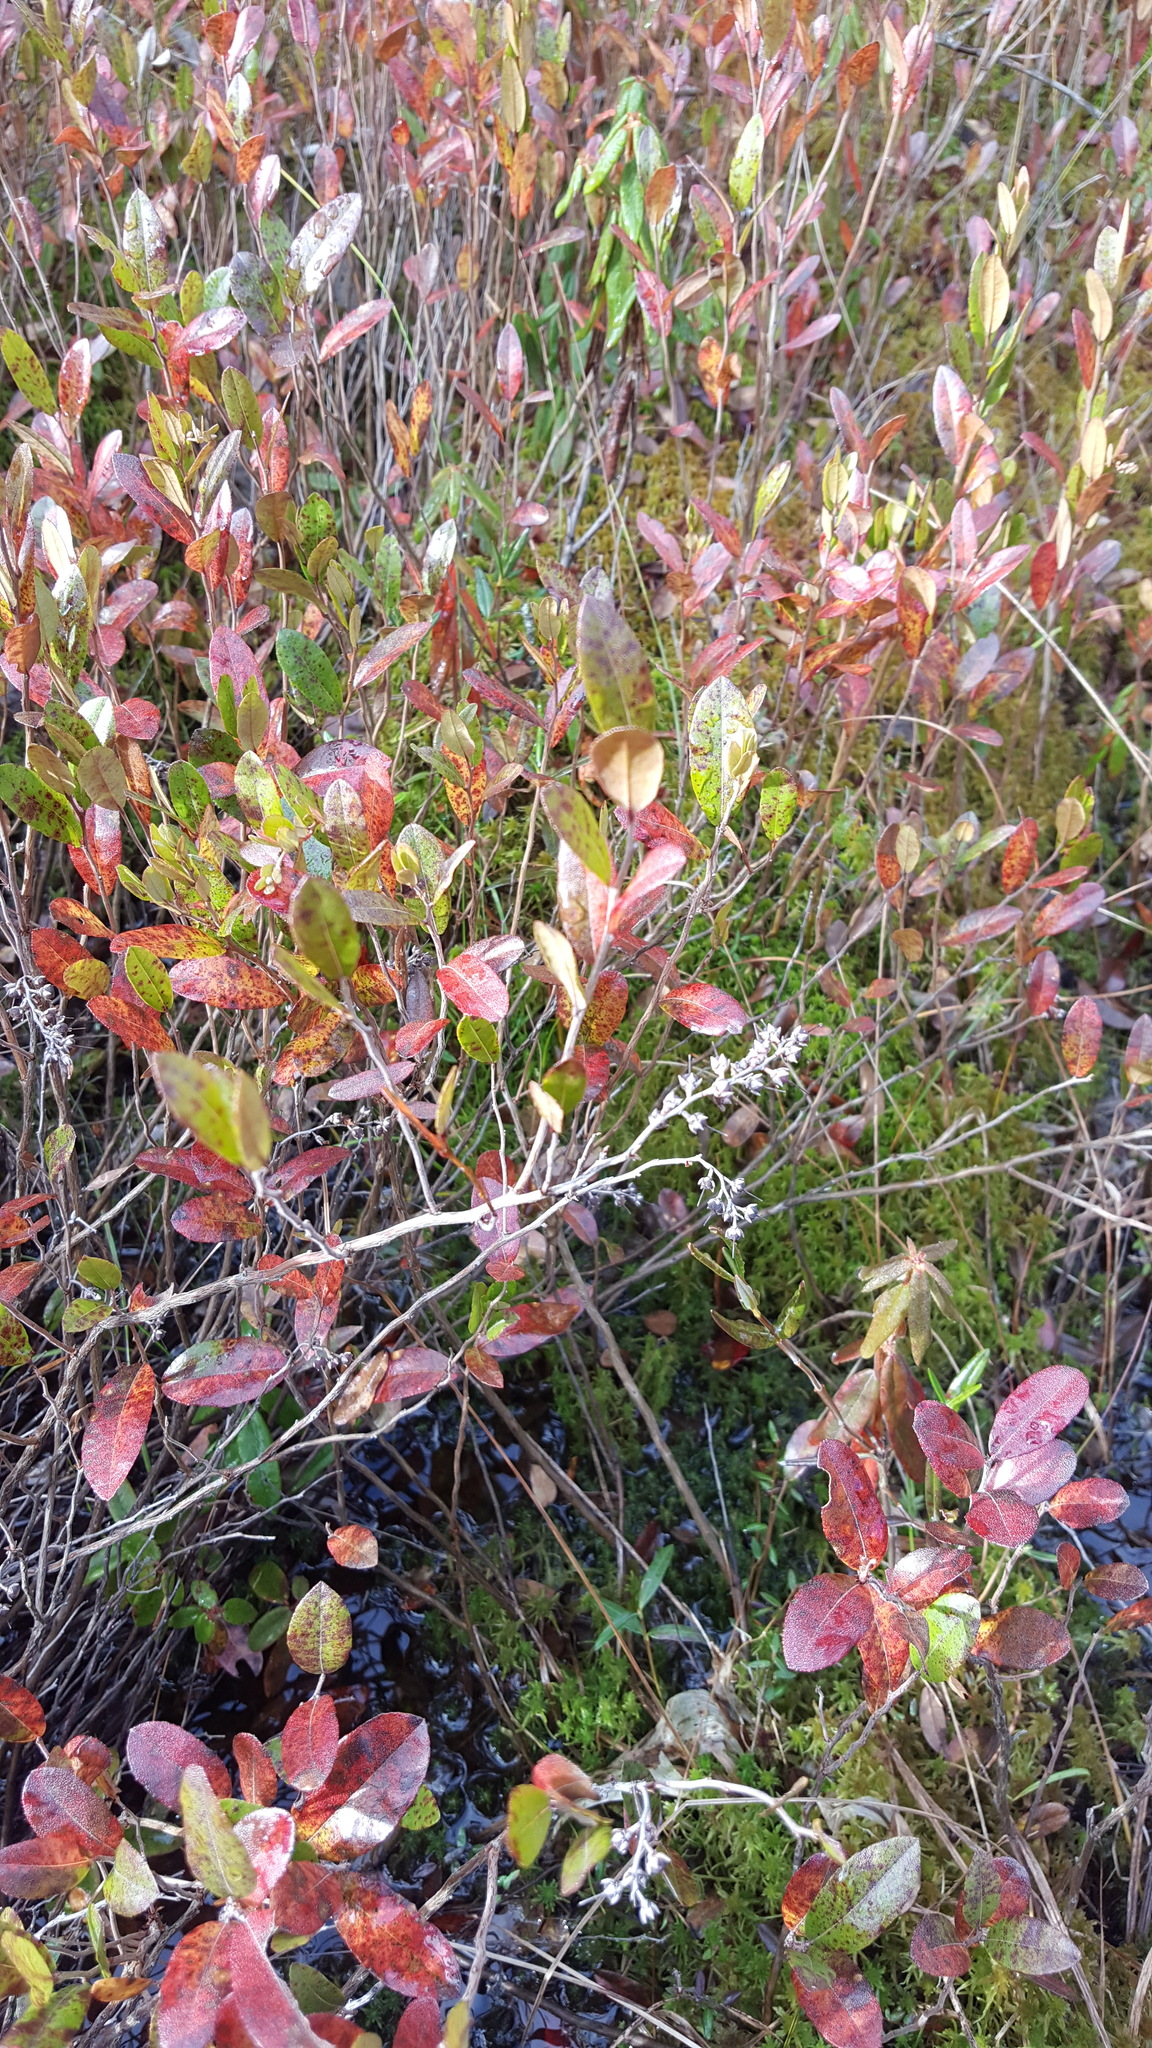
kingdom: Plantae
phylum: Tracheophyta
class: Magnoliopsida
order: Ericales
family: Ericaceae
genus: Chamaedaphne
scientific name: Chamaedaphne calyculata
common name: Leatherleaf
